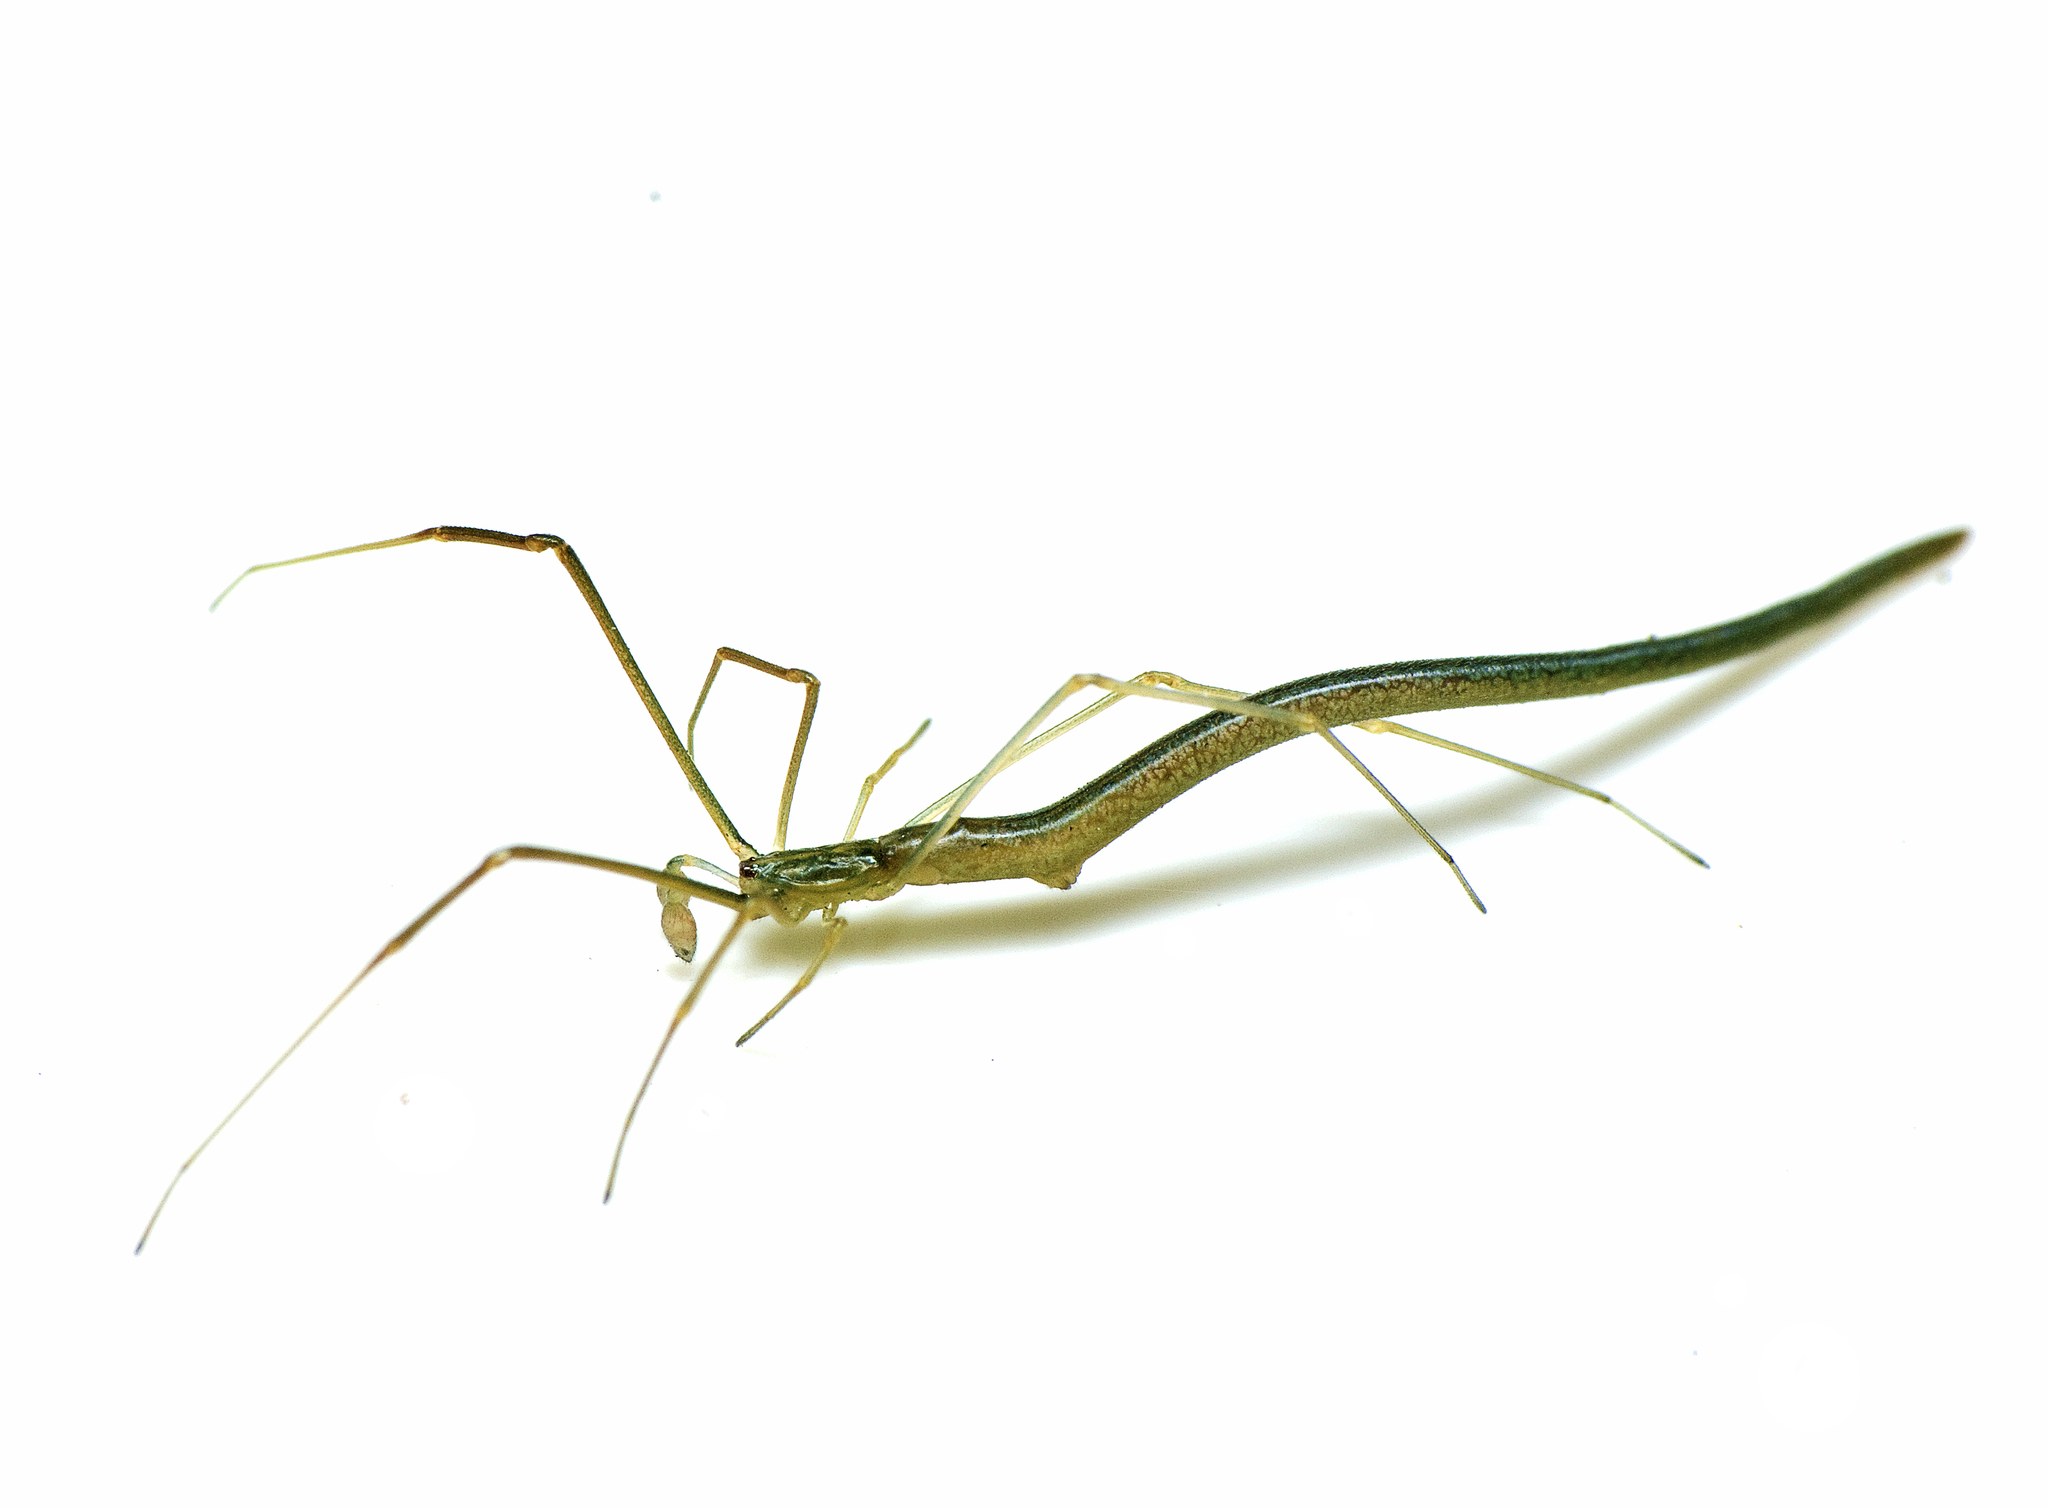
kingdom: Animalia
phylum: Arthropoda
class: Arachnida
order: Araneae
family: Theridiidae
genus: Ariamnes
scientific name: Ariamnes colubrinus
